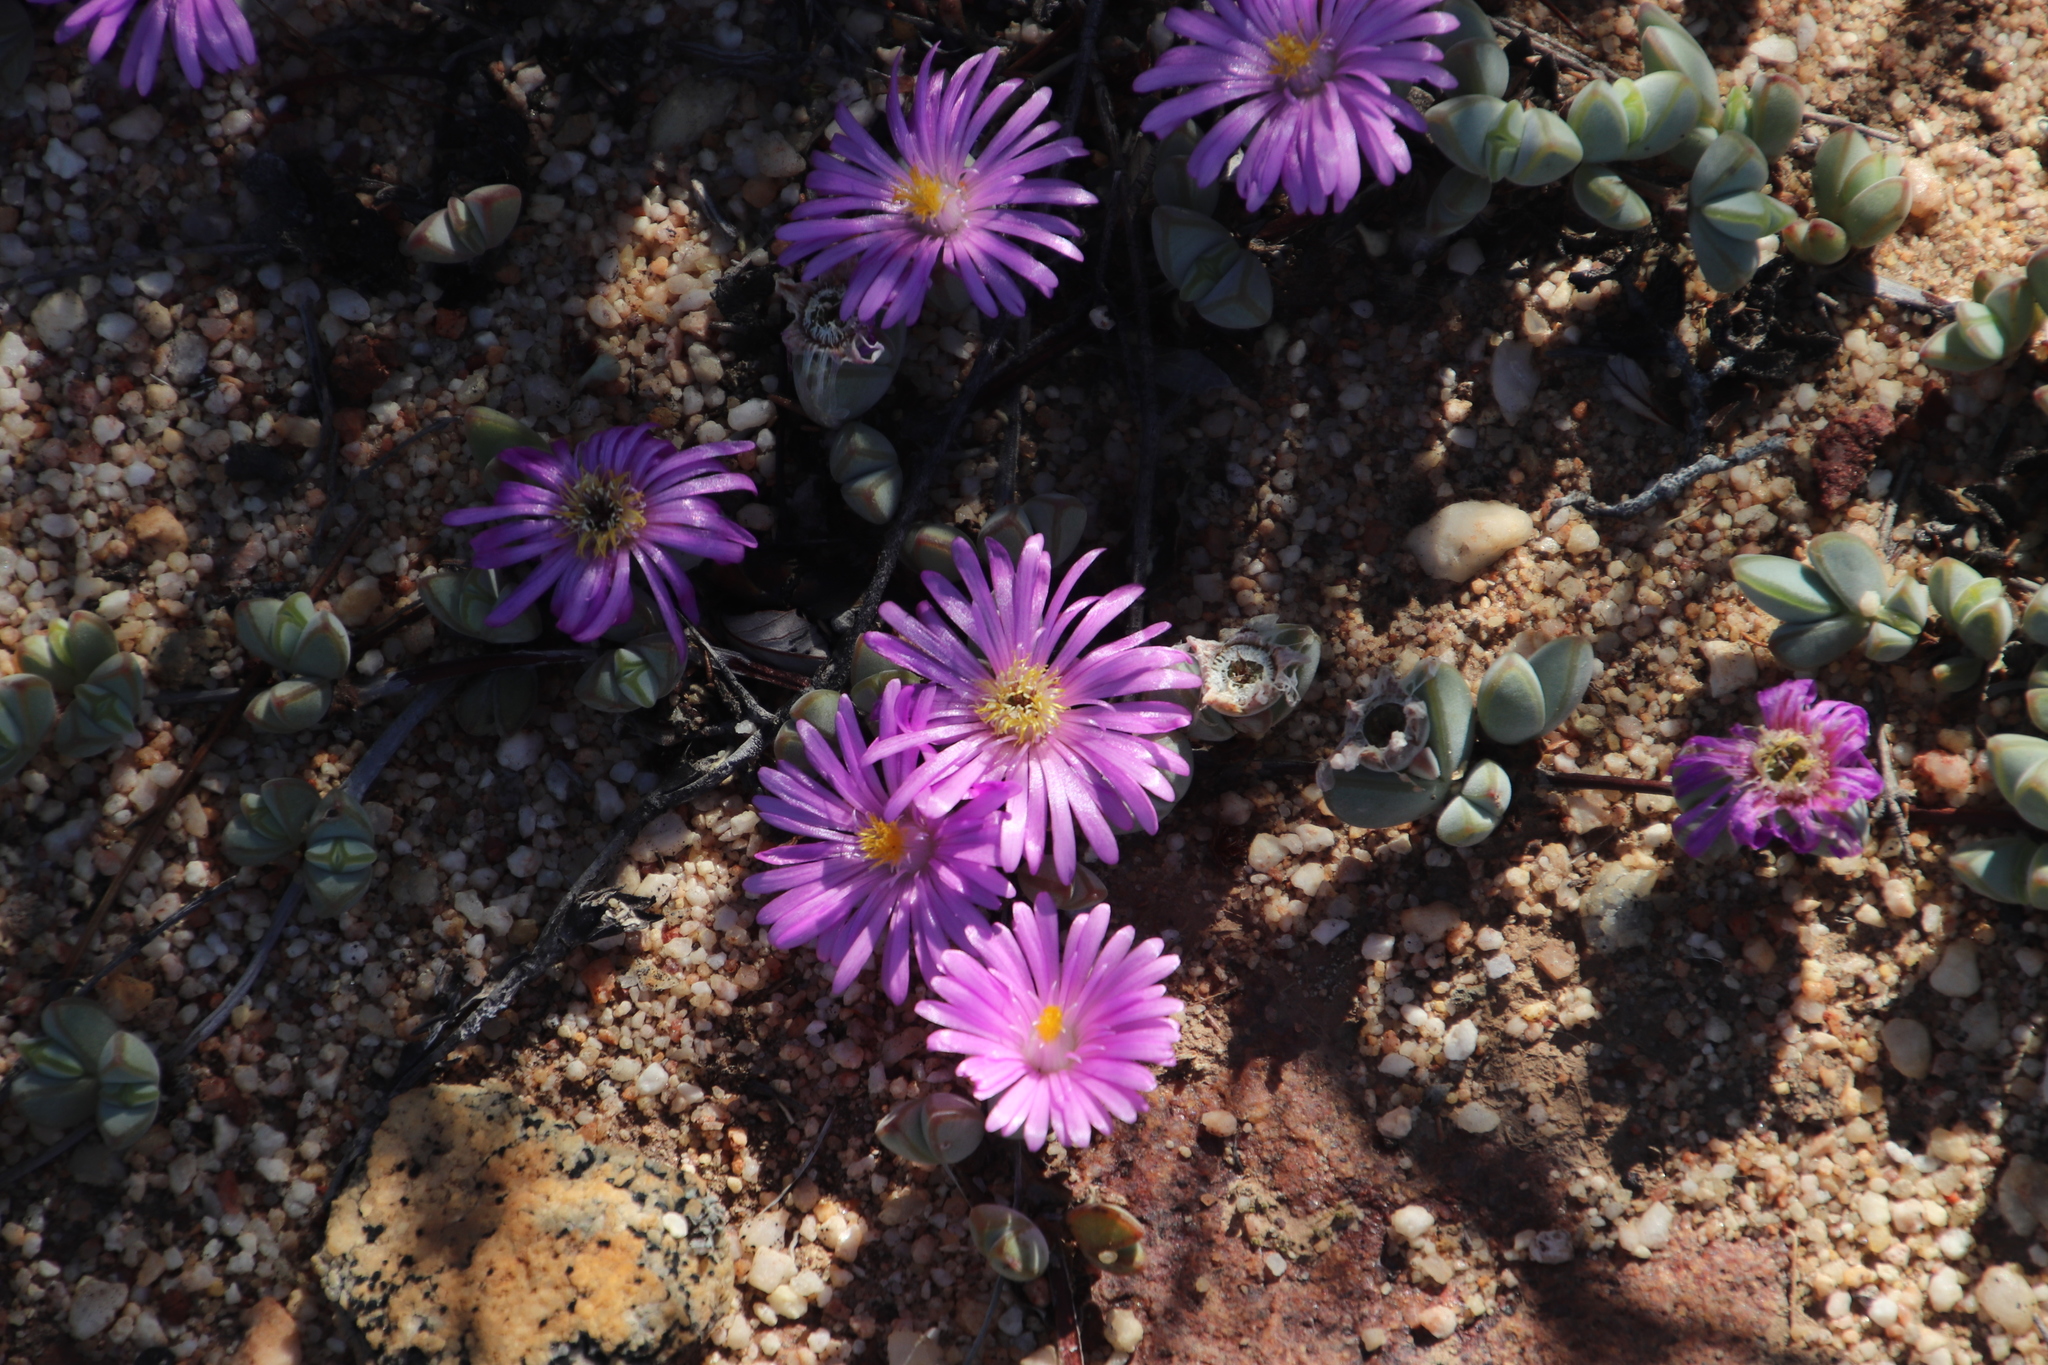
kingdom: Plantae
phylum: Tracheophyta
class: Magnoliopsida
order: Caryophyllales
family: Aizoaceae
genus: Braunsia
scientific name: Braunsia maximiliani
